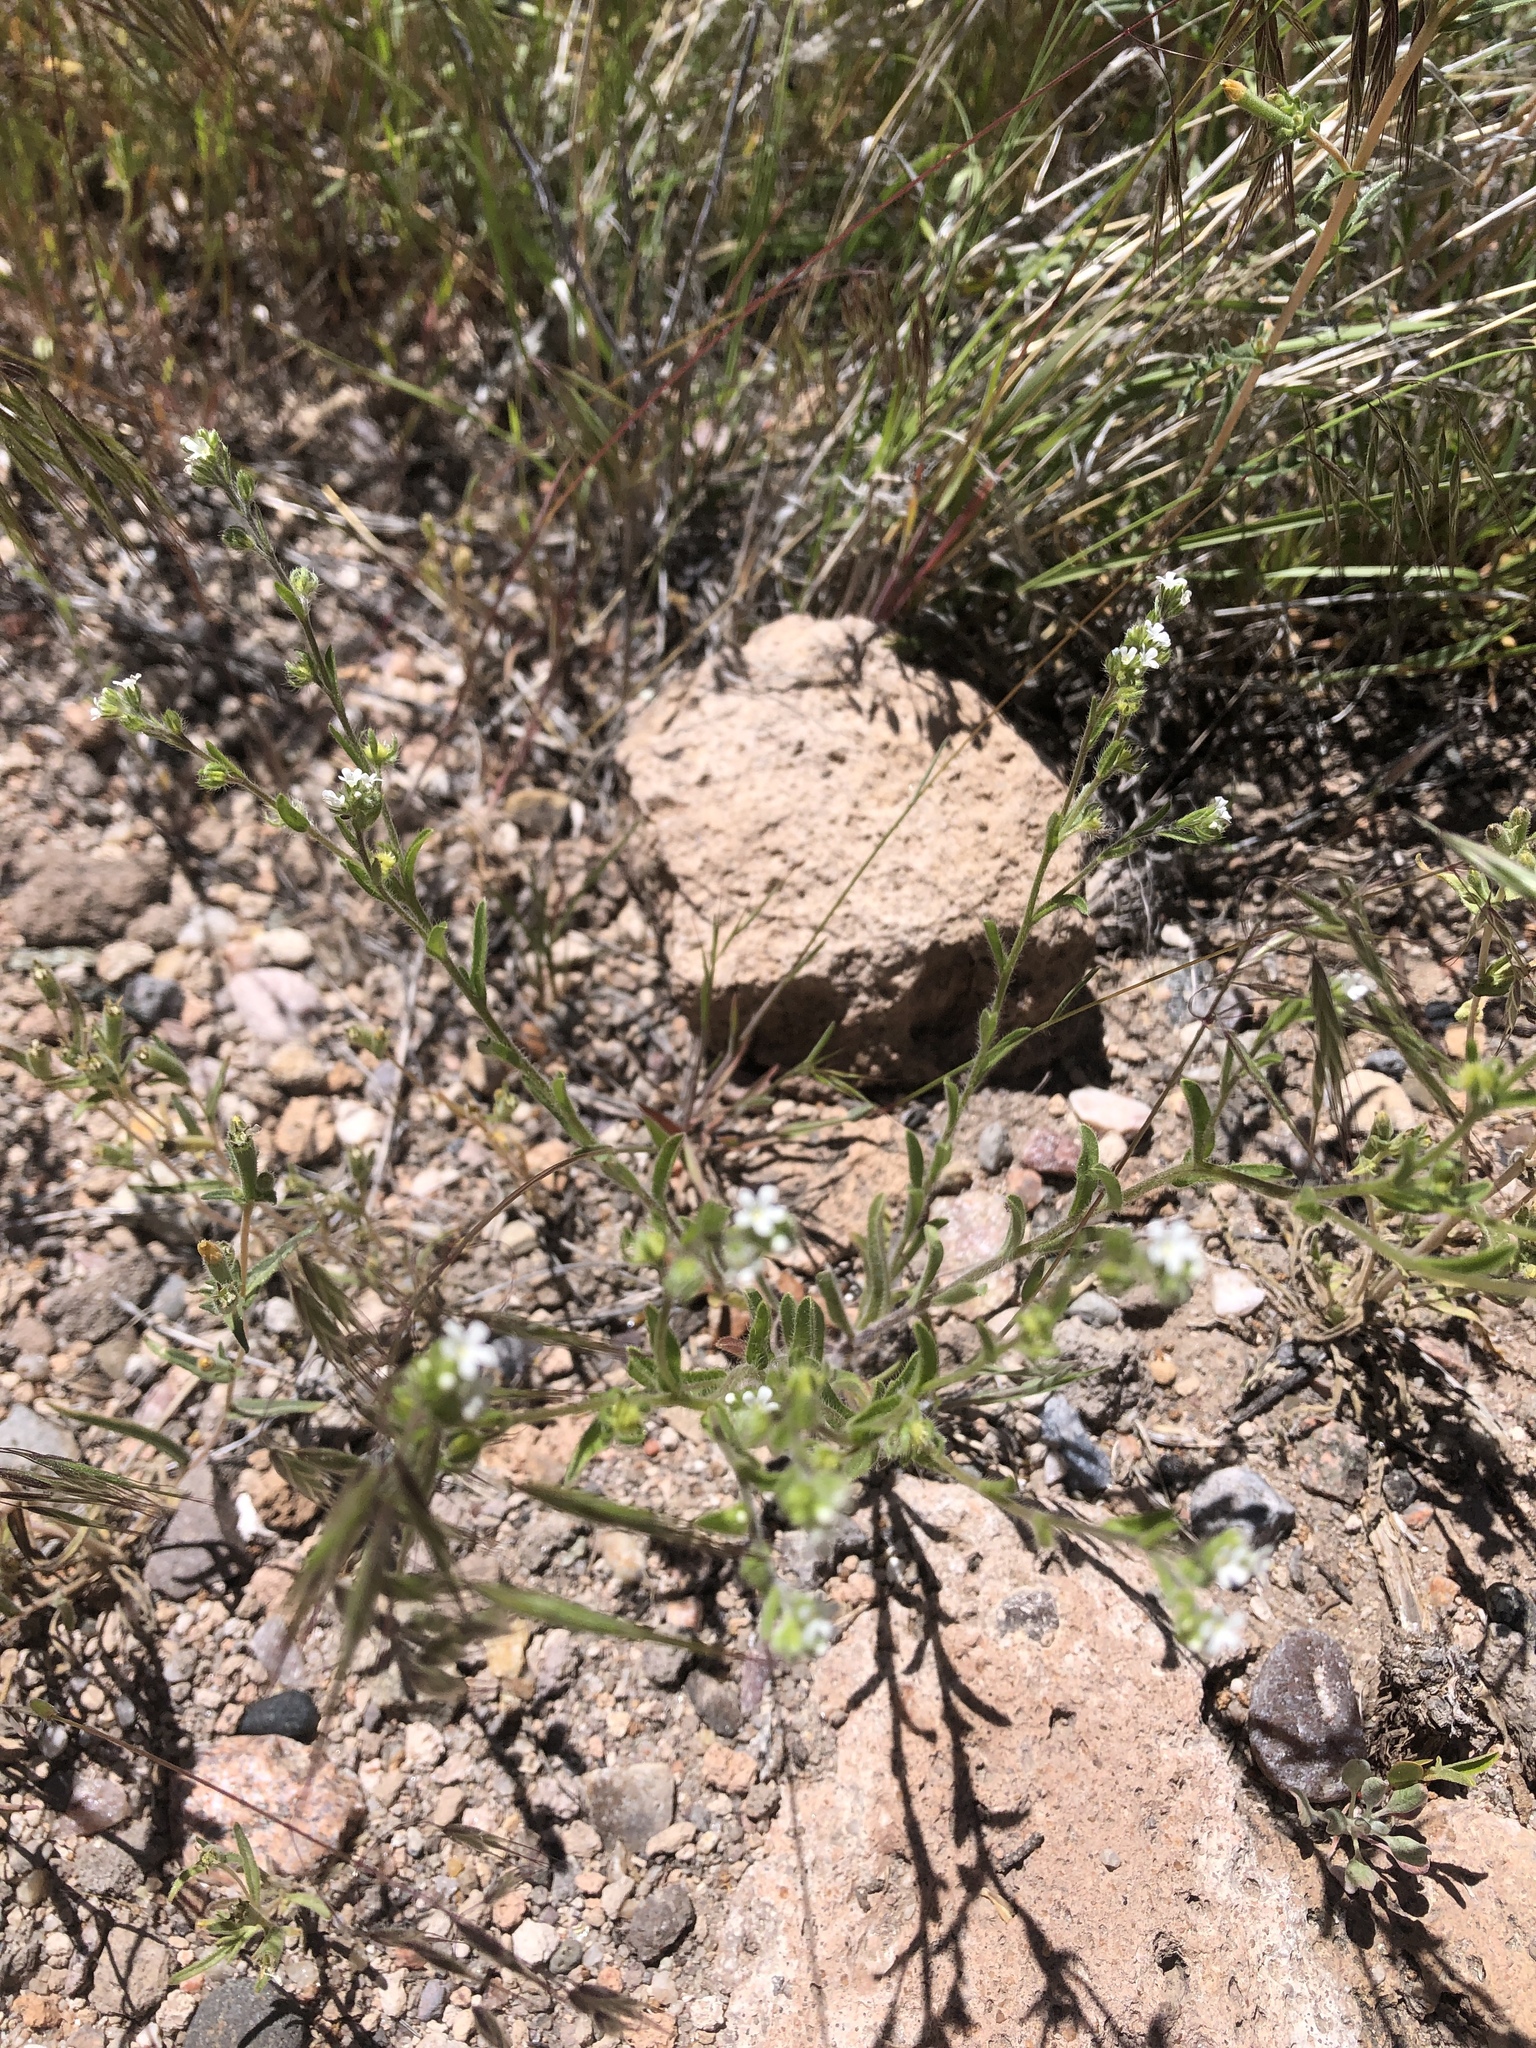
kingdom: Plantae
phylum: Tracheophyta
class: Magnoliopsida
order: Boraginales
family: Boraginaceae
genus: Lappula
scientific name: Lappula occidentalis
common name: Western stickseed
